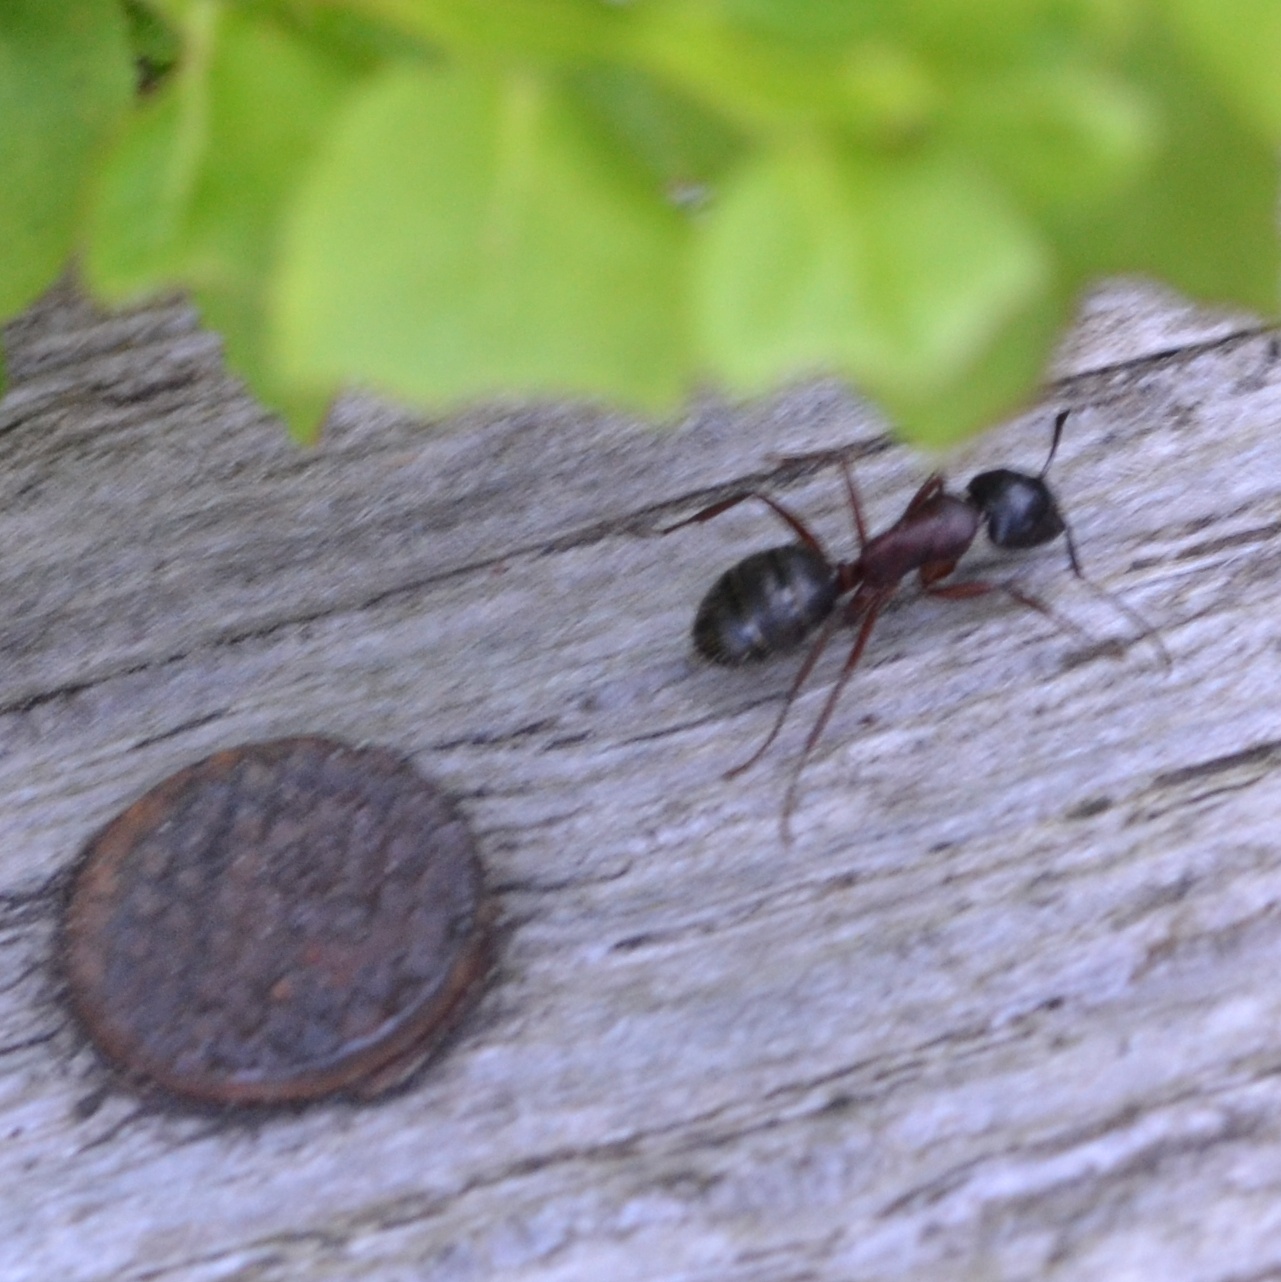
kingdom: Animalia
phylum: Arthropoda
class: Insecta
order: Hymenoptera
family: Formicidae
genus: Camponotus
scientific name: Camponotus herculeanus
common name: Hercules ant
